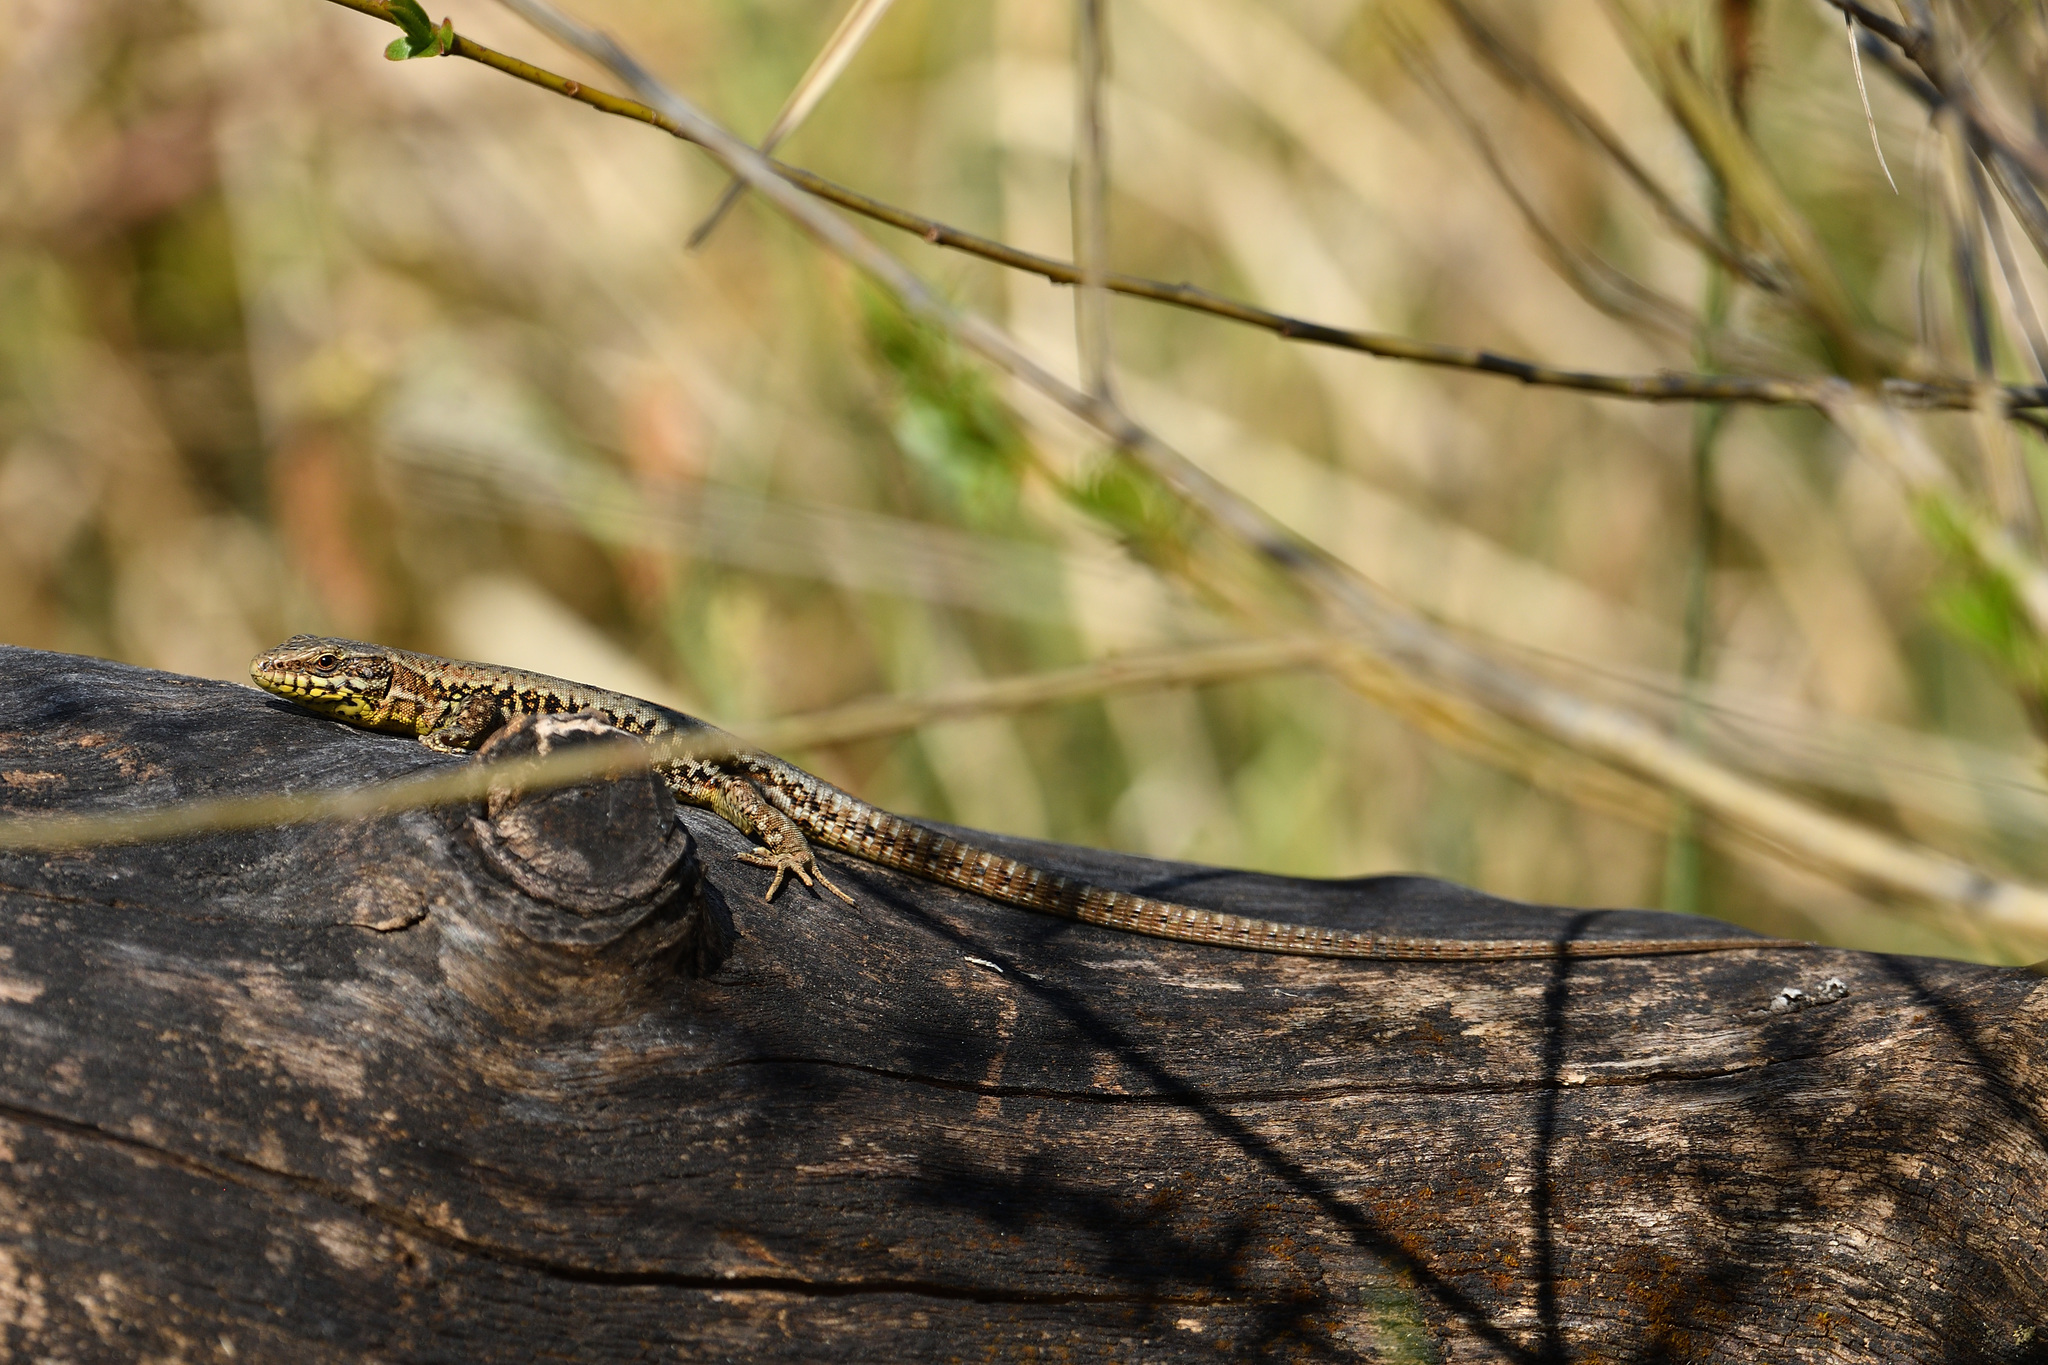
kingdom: Animalia
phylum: Chordata
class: Squamata
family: Lacertidae
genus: Podarcis
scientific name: Podarcis muralis
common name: Common wall lizard
